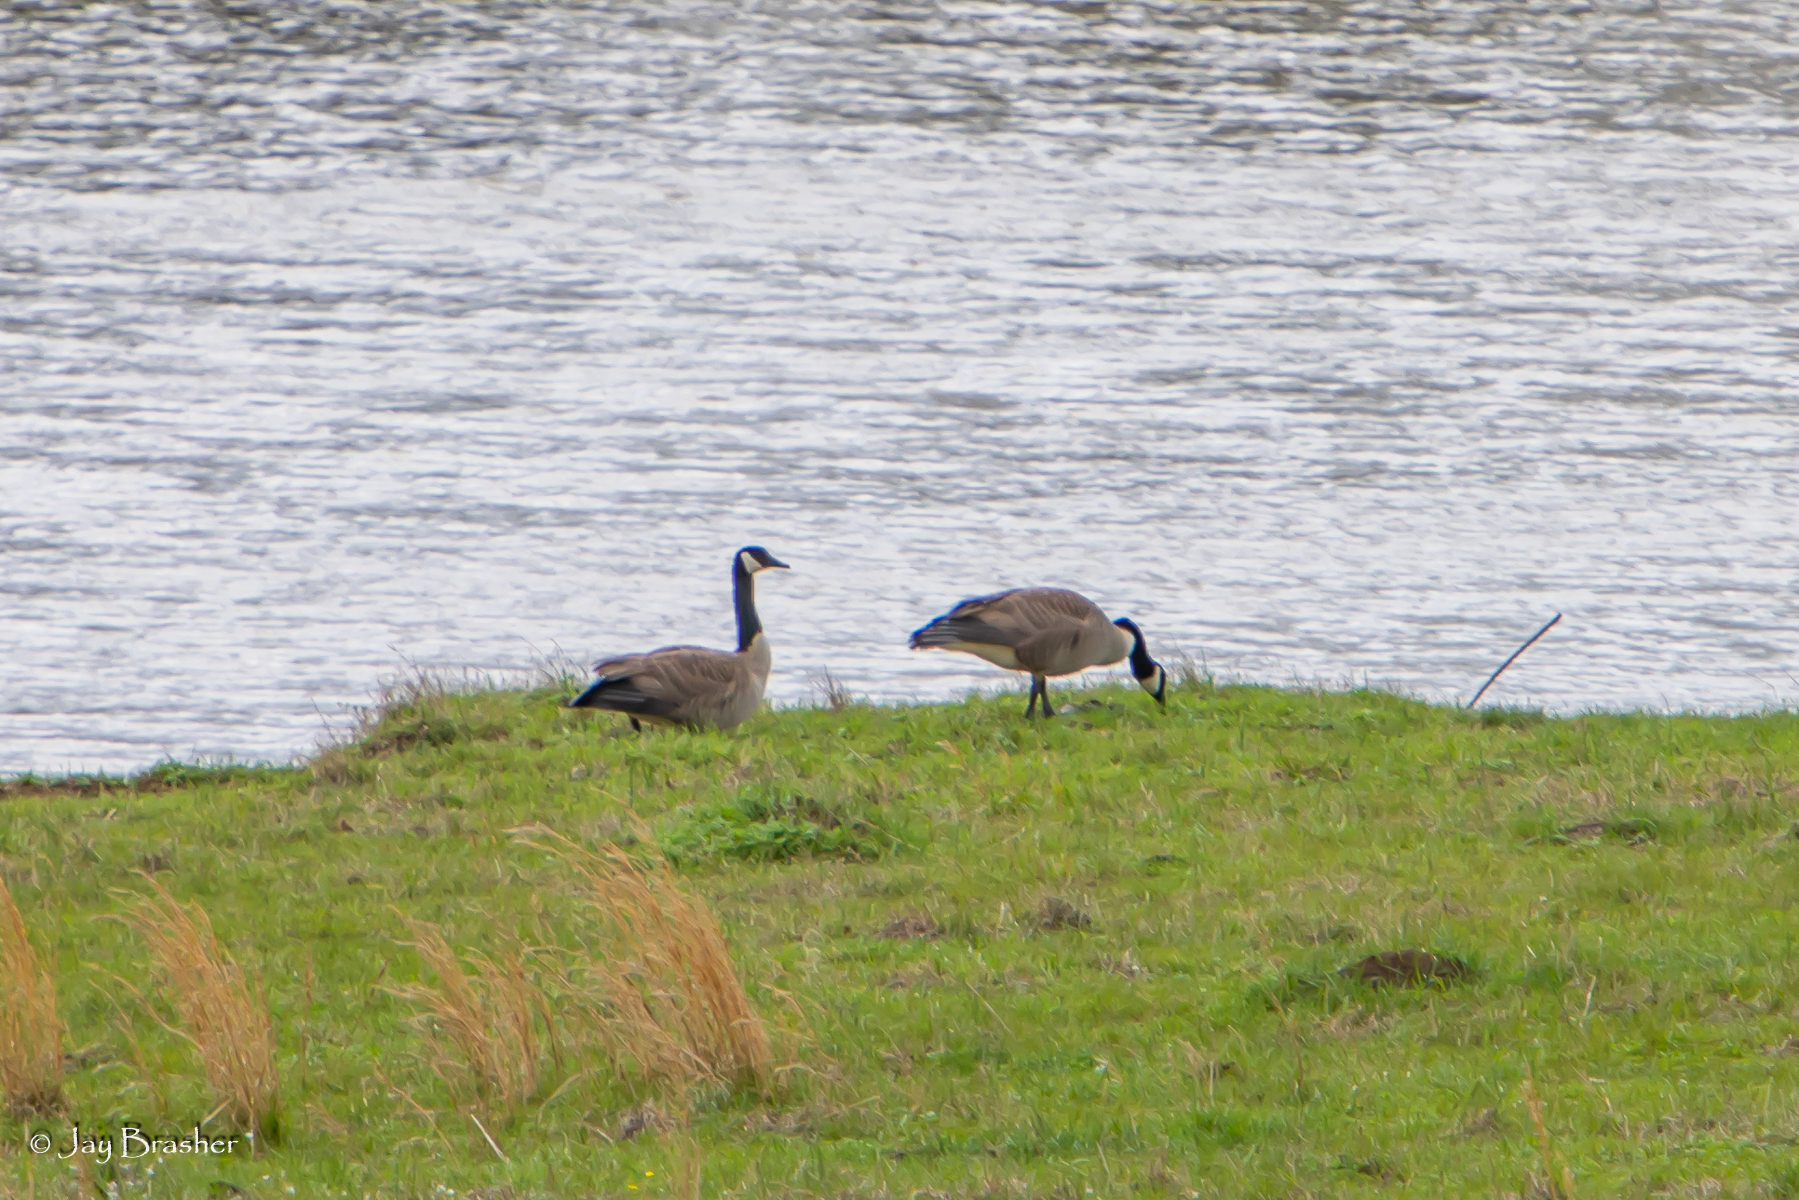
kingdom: Animalia
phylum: Chordata
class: Aves
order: Anseriformes
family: Anatidae
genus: Branta
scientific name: Branta canadensis
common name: Canada goose
